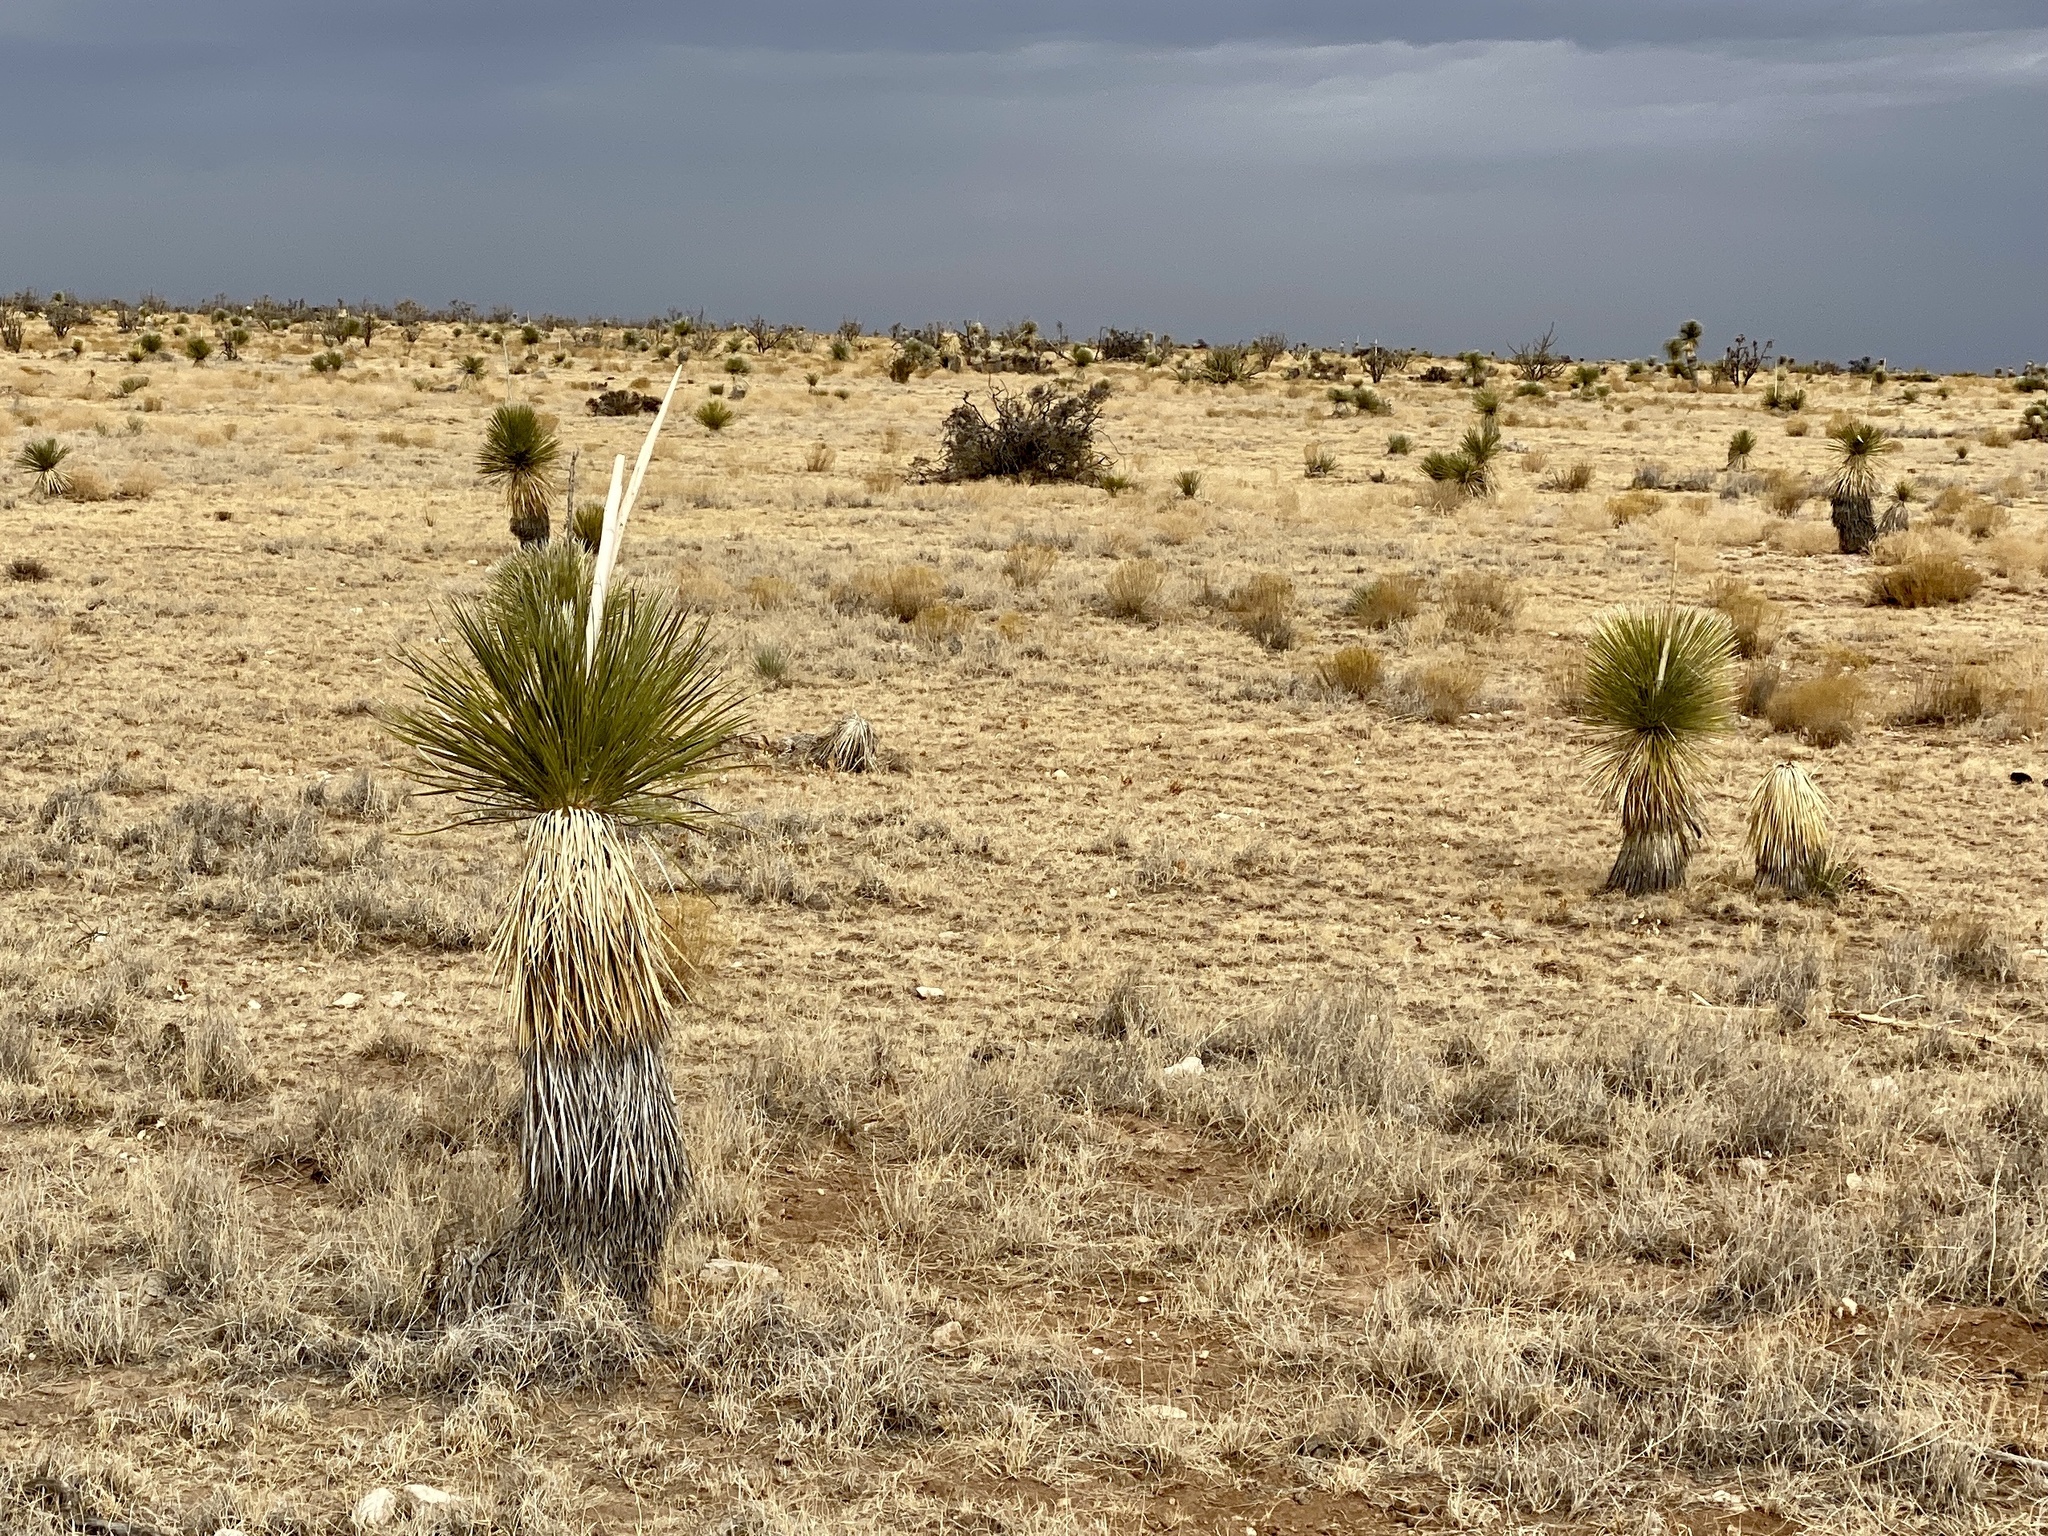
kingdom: Plantae
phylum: Tracheophyta
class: Liliopsida
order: Asparagales
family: Asparagaceae
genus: Yucca
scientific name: Yucca elata
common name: Palmella
